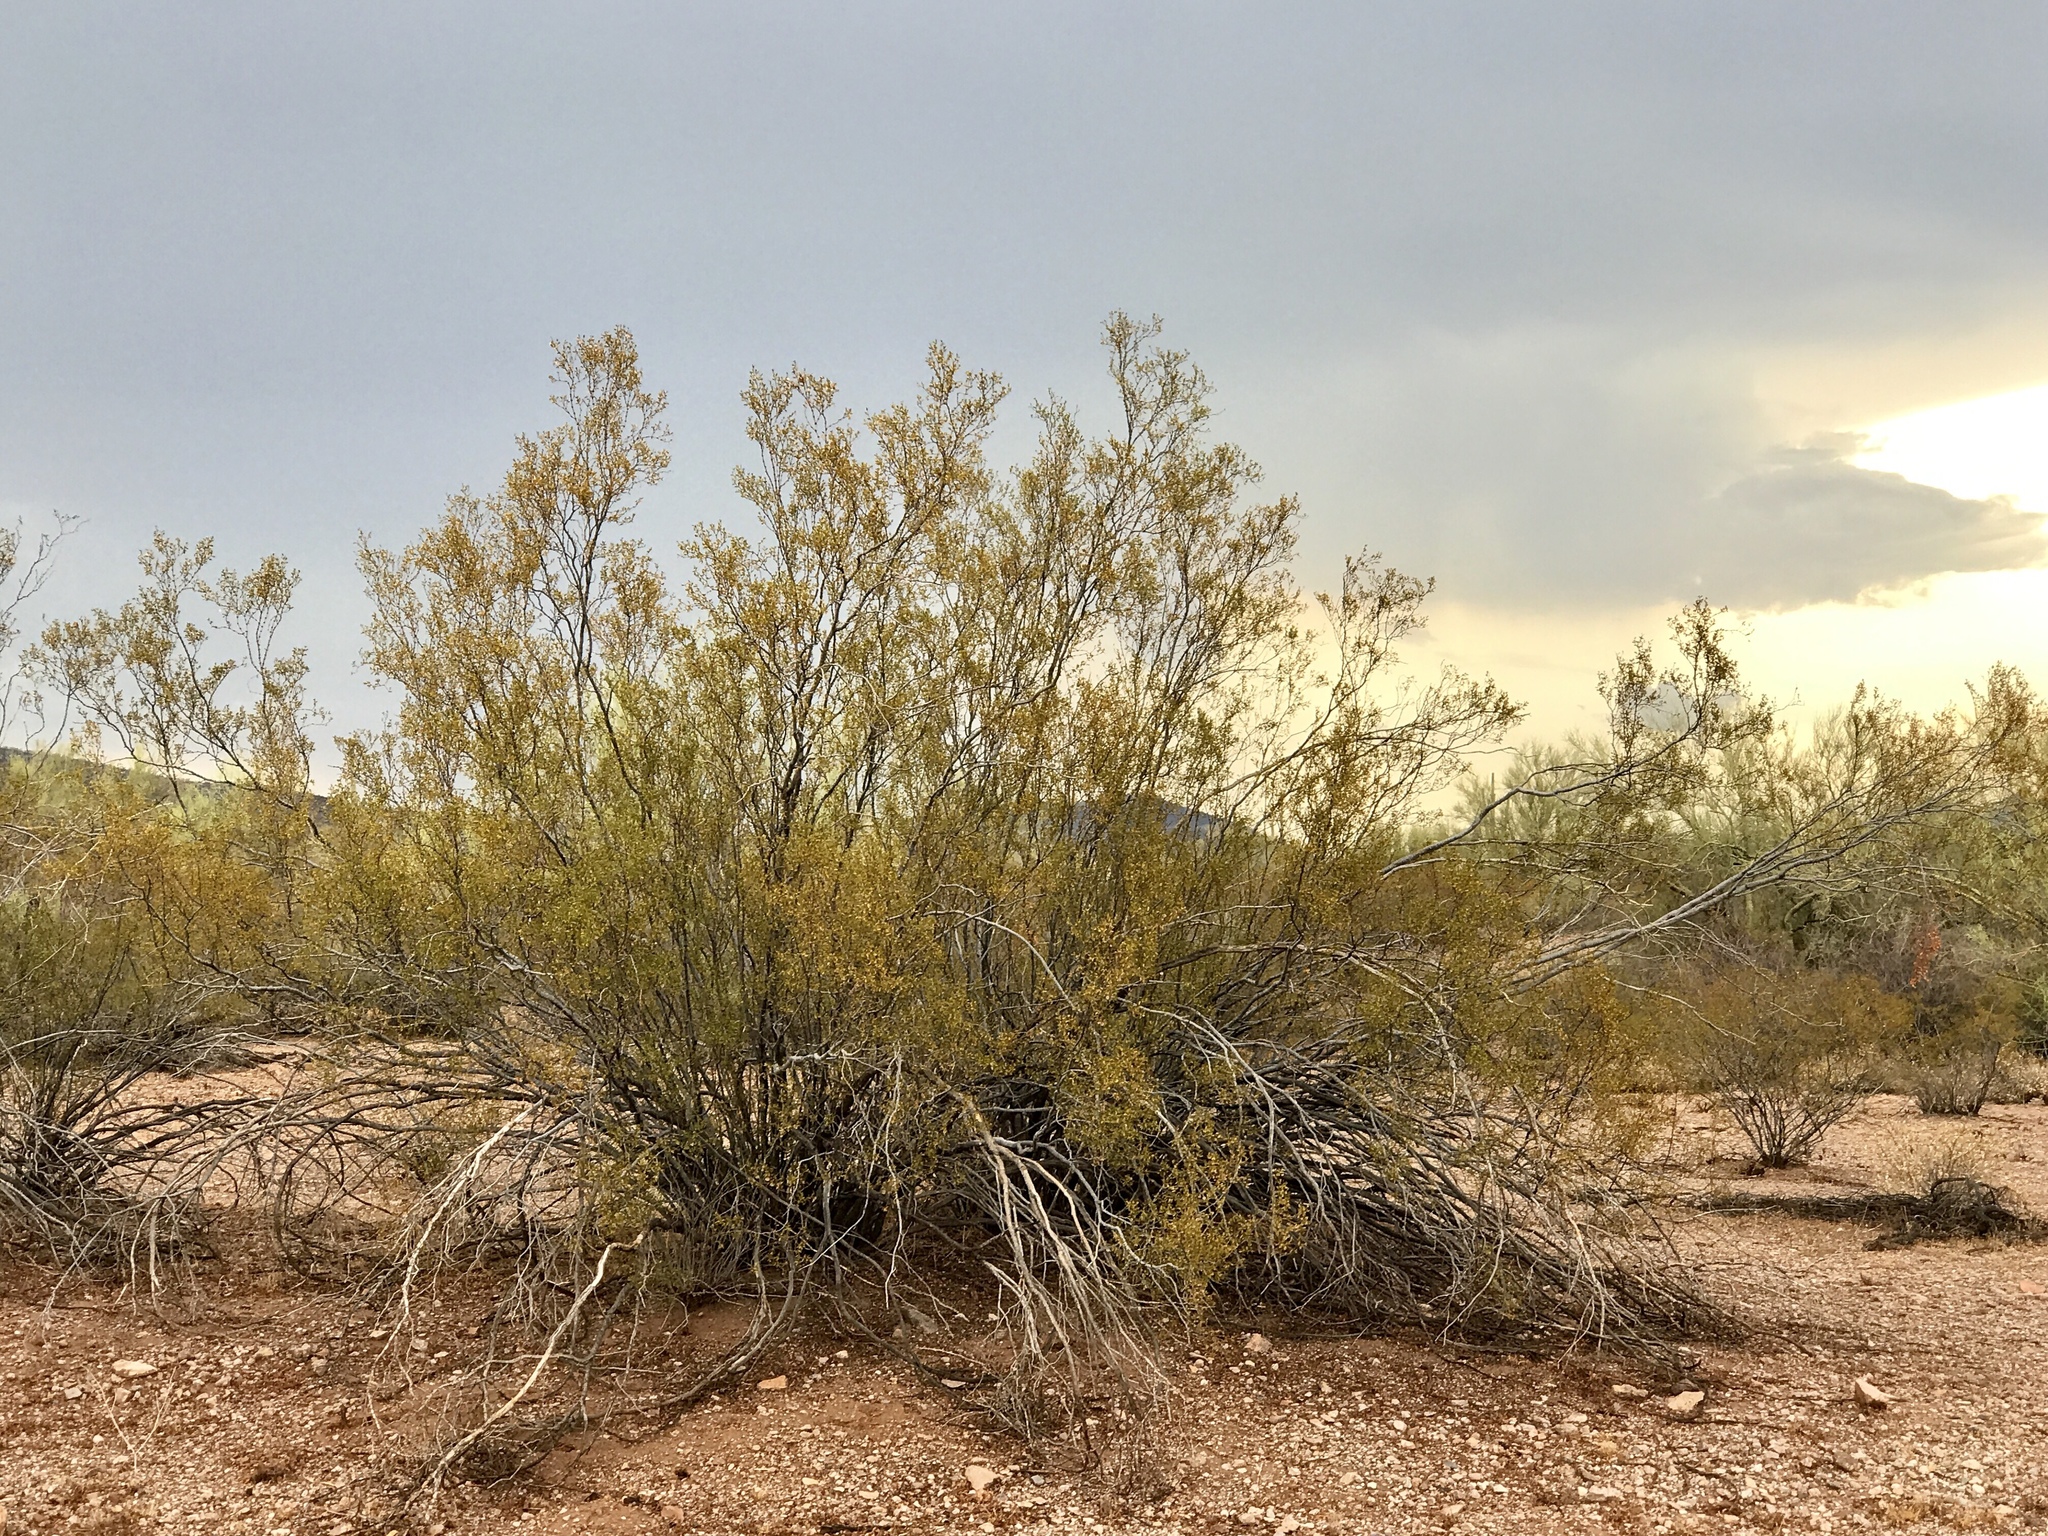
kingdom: Plantae
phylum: Tracheophyta
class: Magnoliopsida
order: Zygophyllales
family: Zygophyllaceae
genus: Larrea
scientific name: Larrea tridentata
